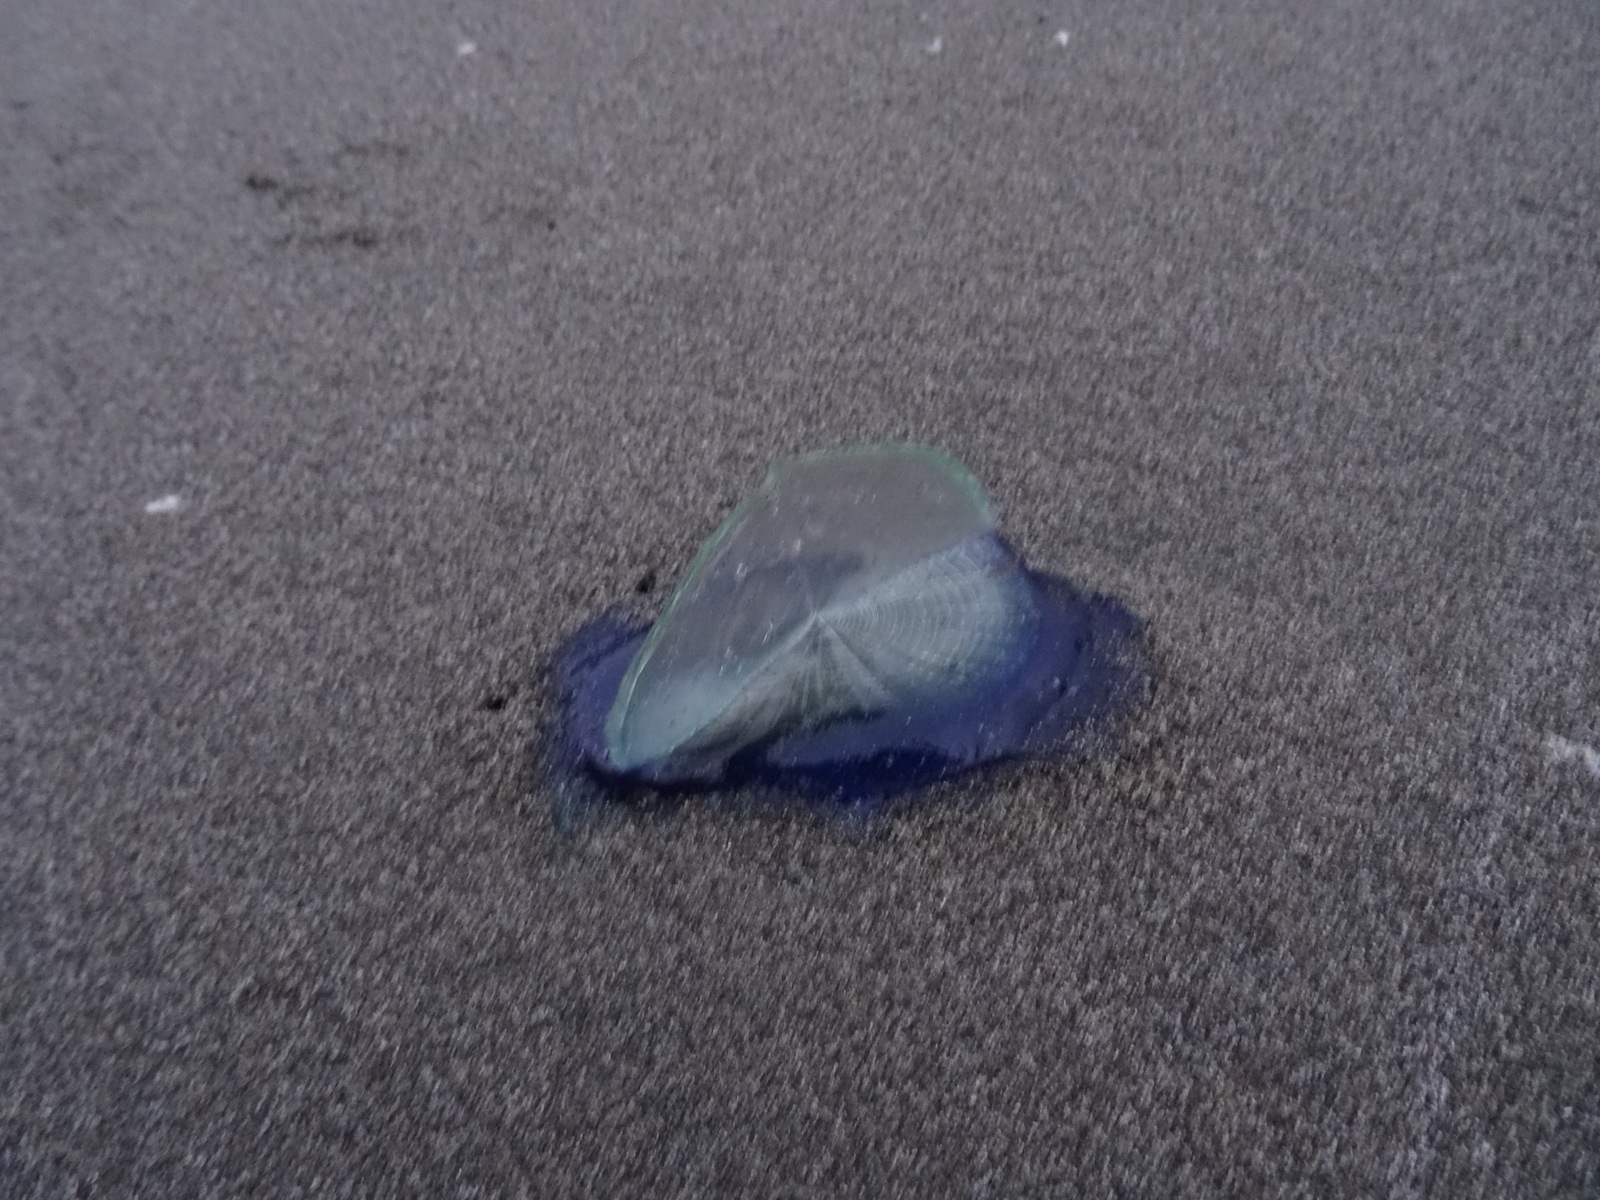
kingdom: Animalia
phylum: Cnidaria
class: Hydrozoa
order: Anthoathecata
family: Porpitidae
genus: Velella
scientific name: Velella velella
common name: By-the-wind-sailor
